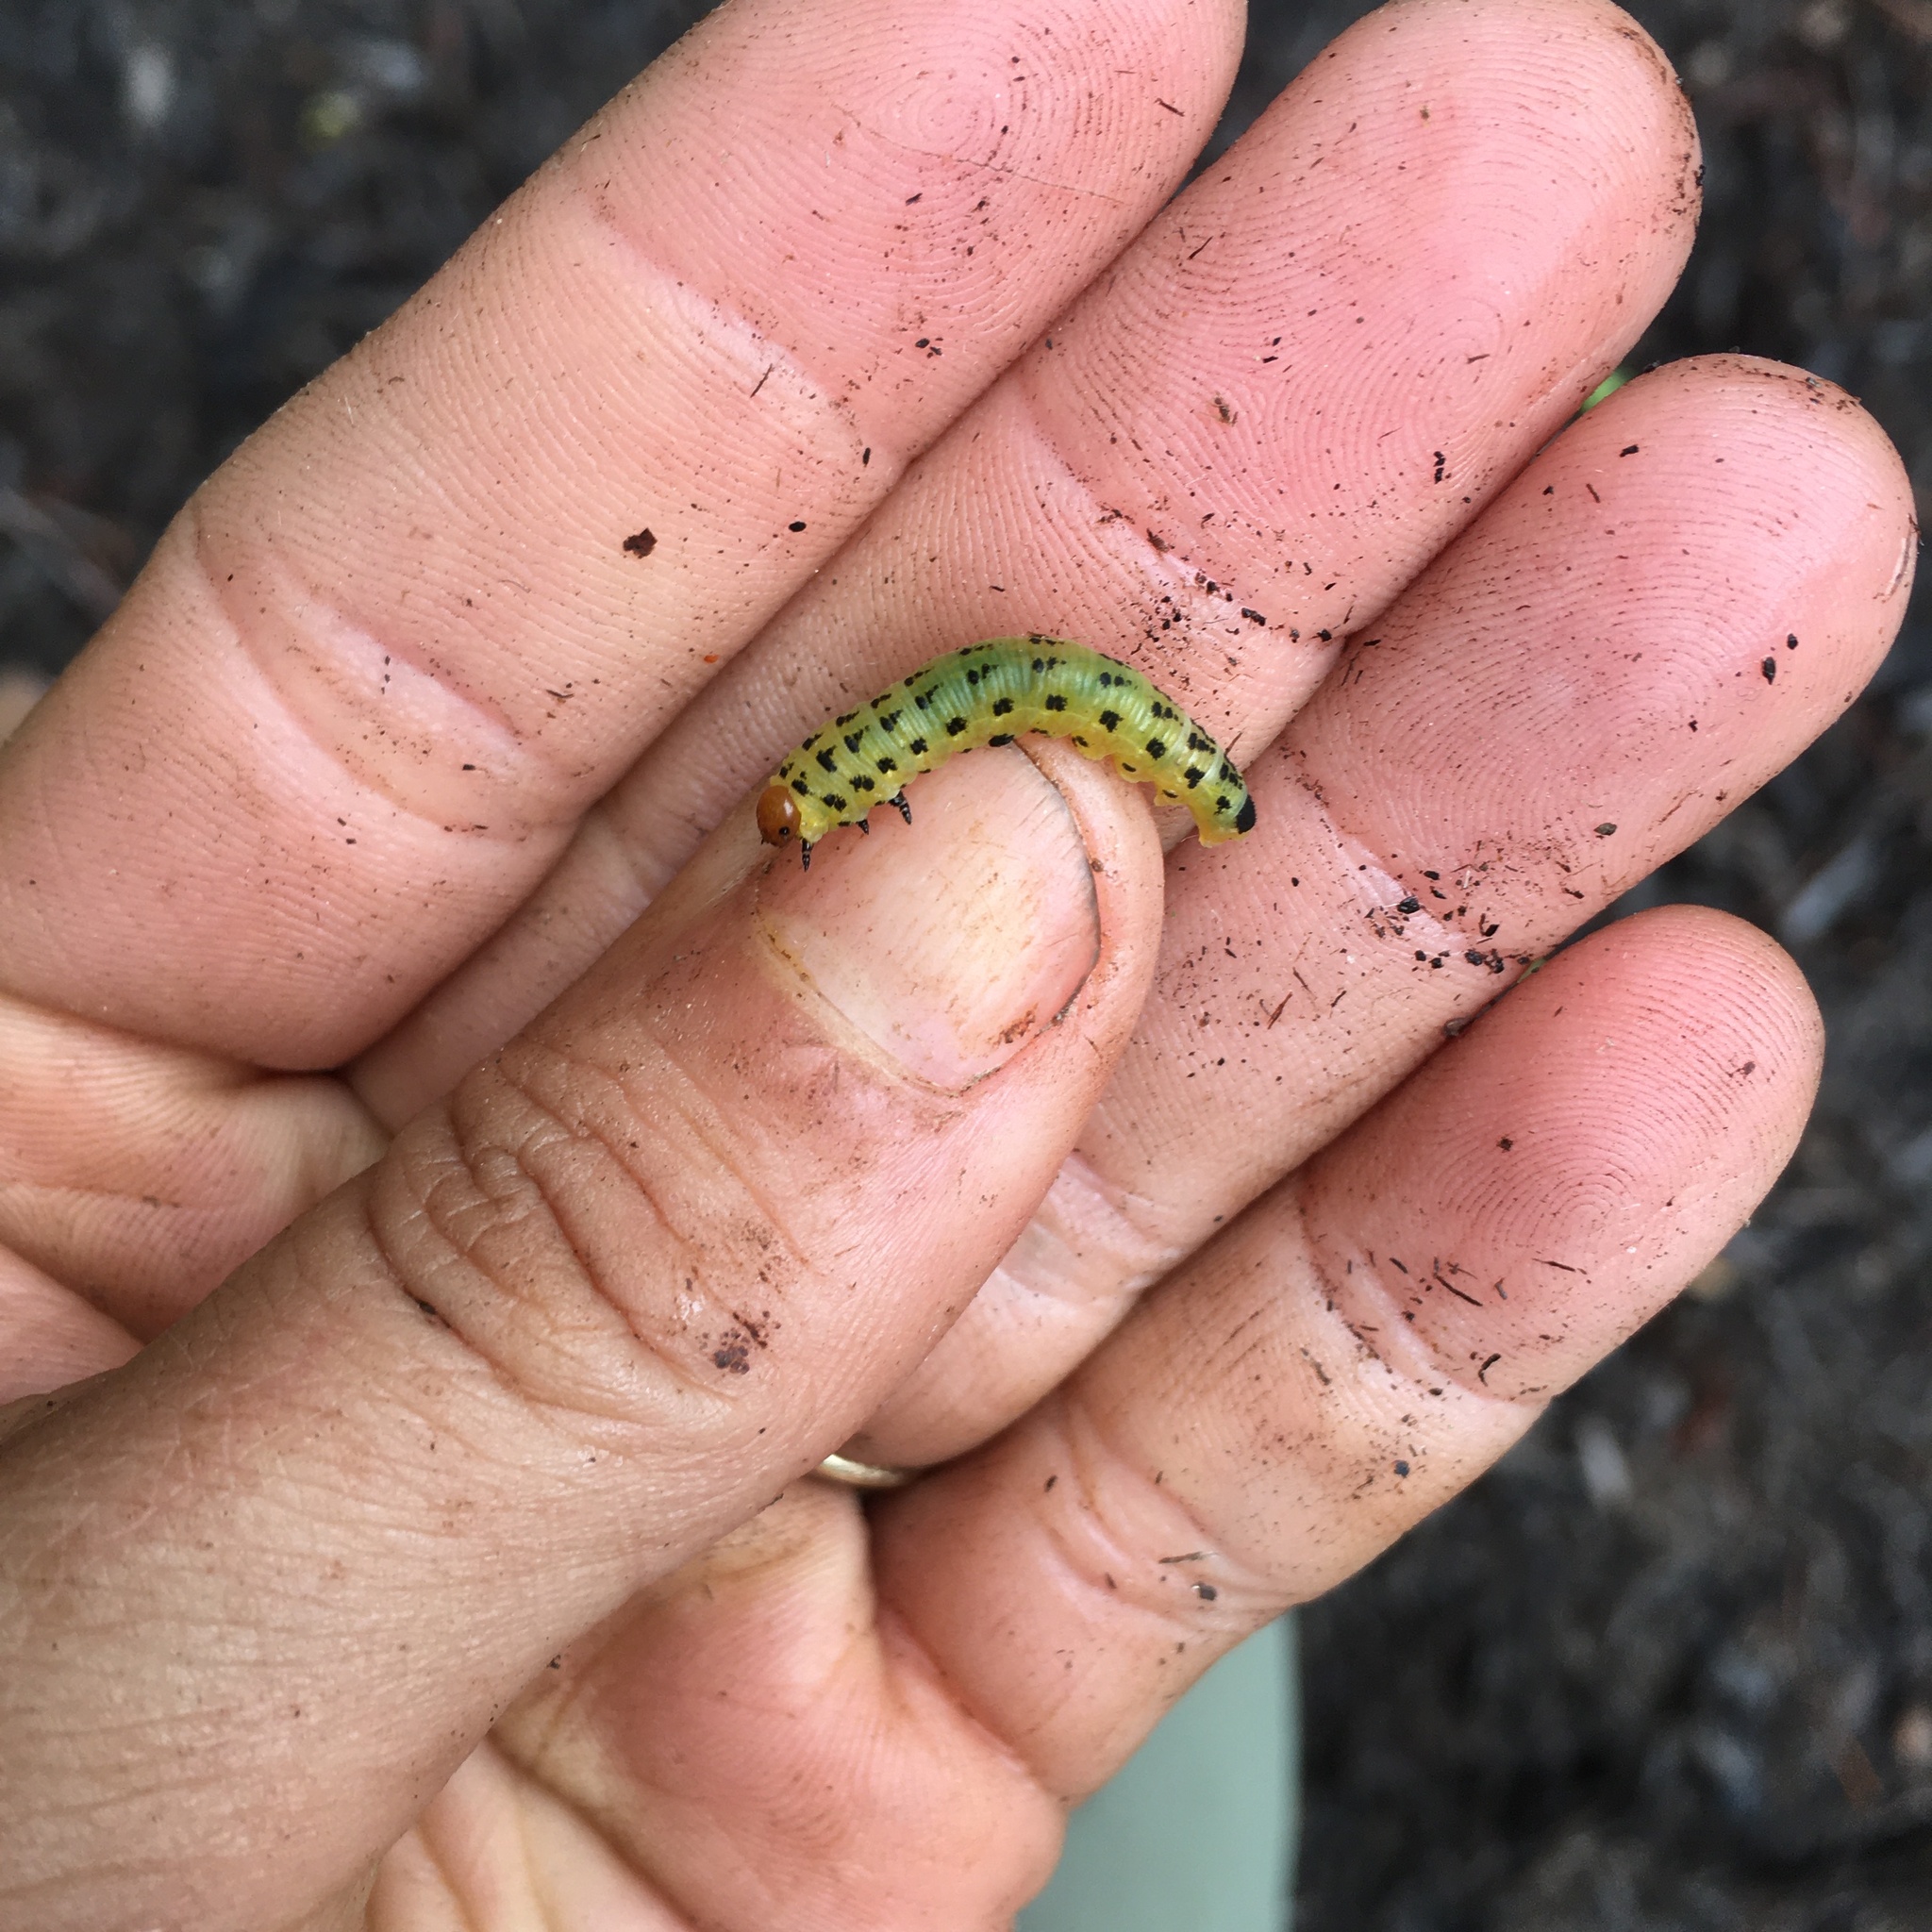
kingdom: Animalia
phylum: Arthropoda
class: Insecta
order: Hymenoptera
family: Diprionidae
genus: Neodiprion
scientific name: Neodiprion lecontei
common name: Redheaded pine sawfly
